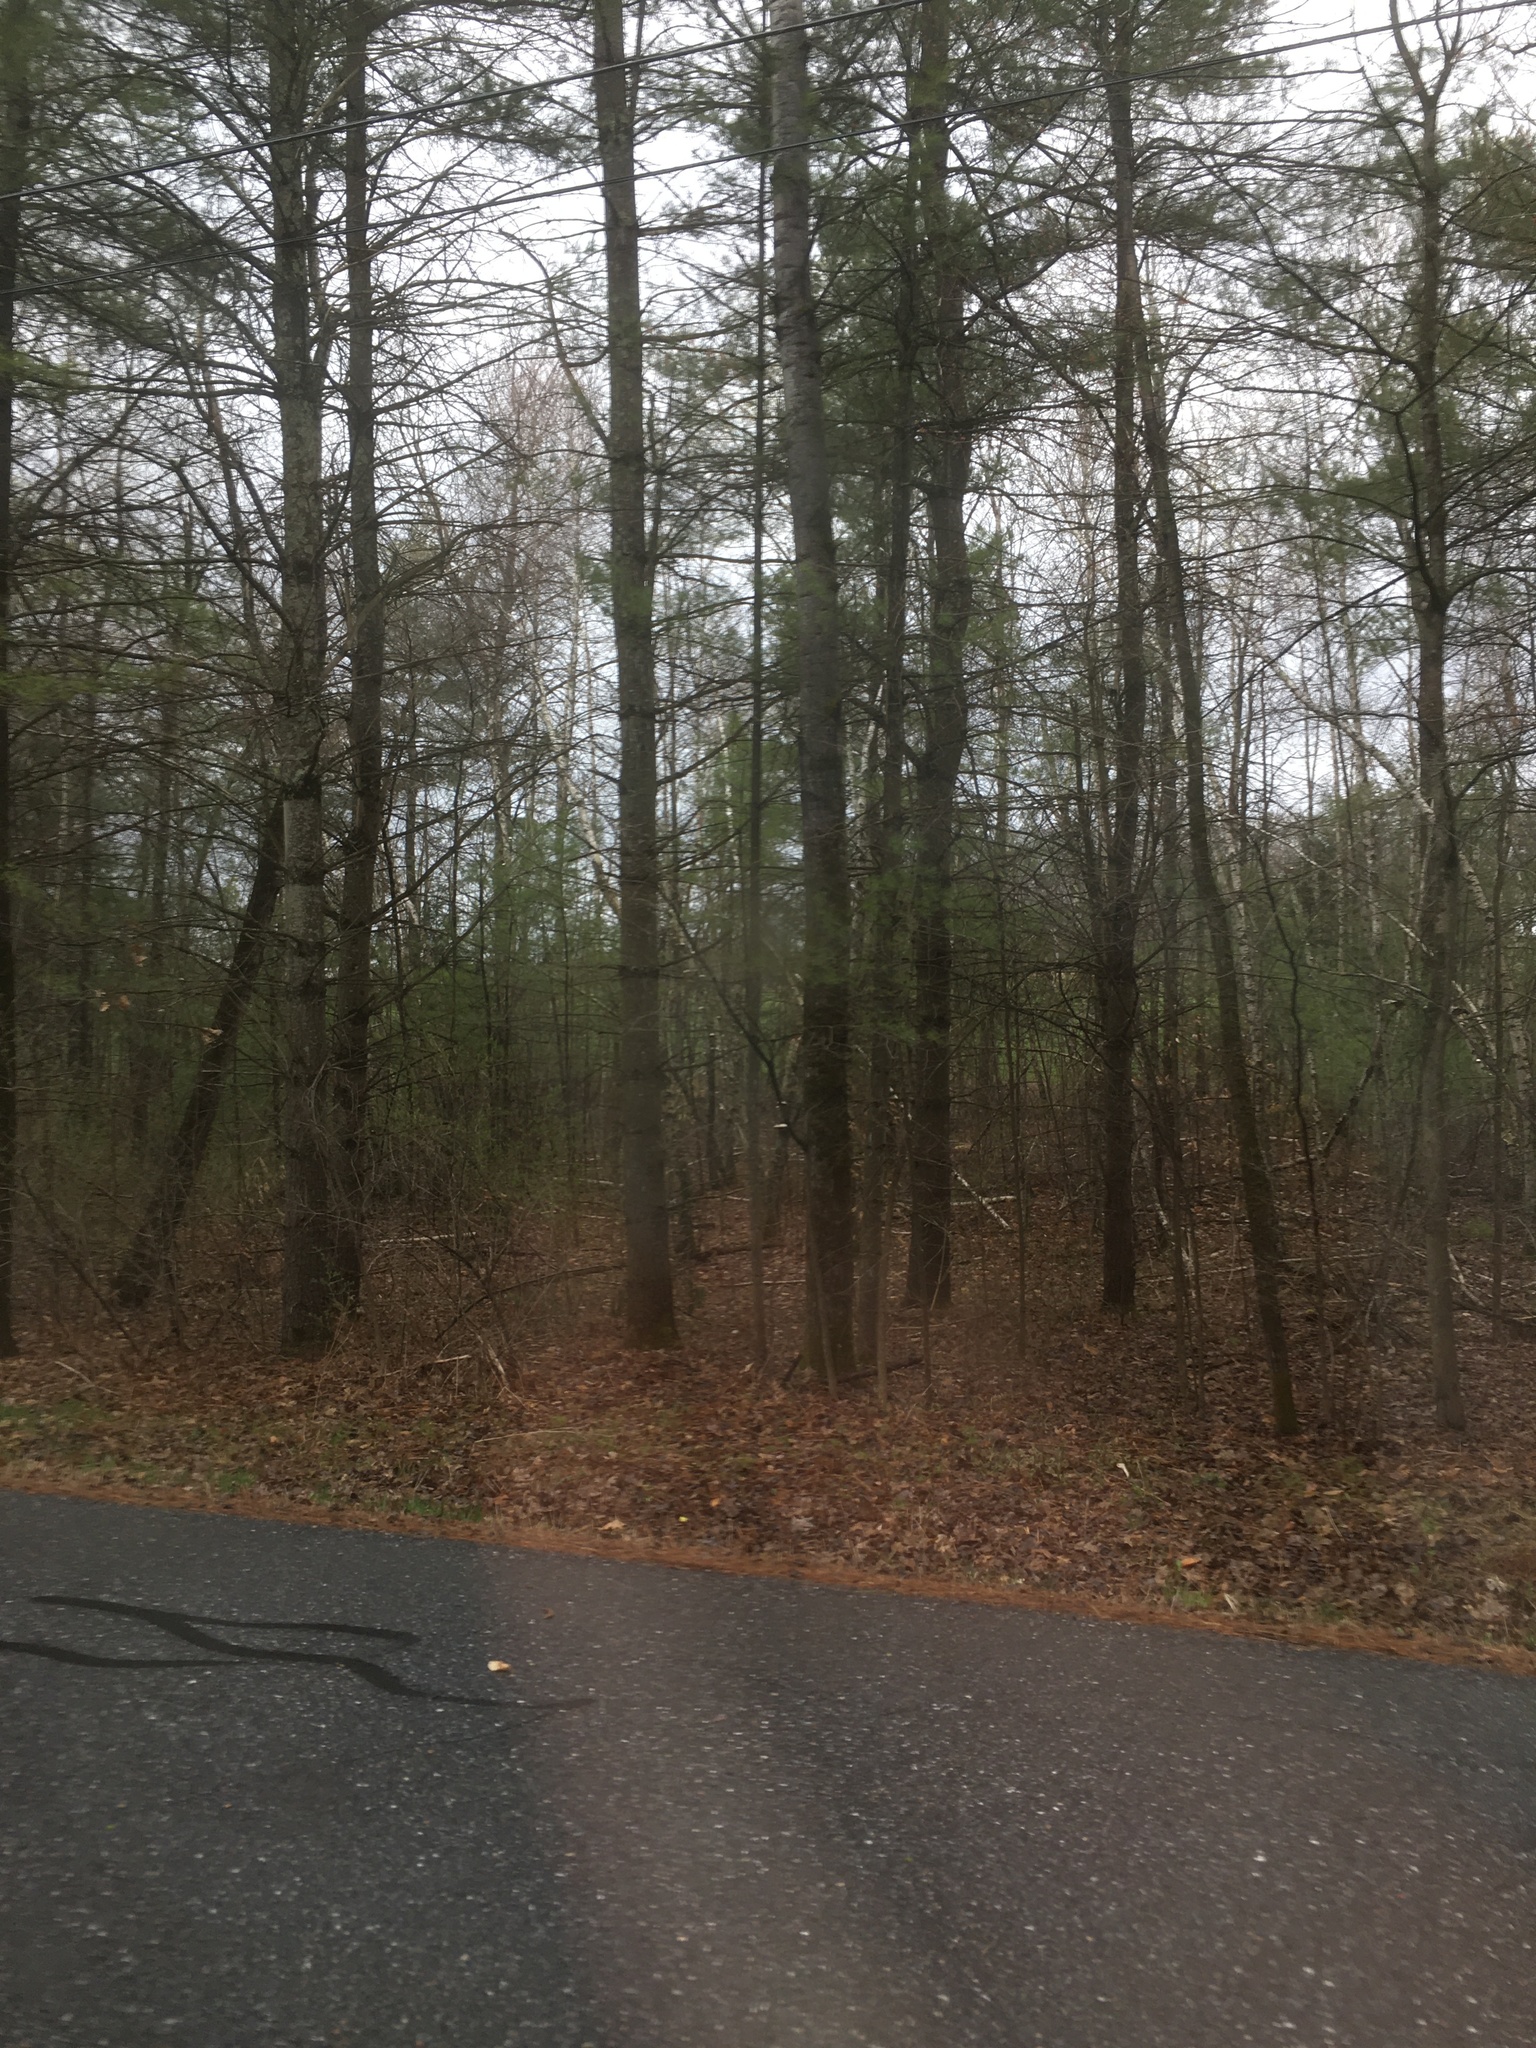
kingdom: Plantae
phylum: Tracheophyta
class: Pinopsida
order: Pinales
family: Pinaceae
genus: Pinus
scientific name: Pinus strobus
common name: Weymouth pine
